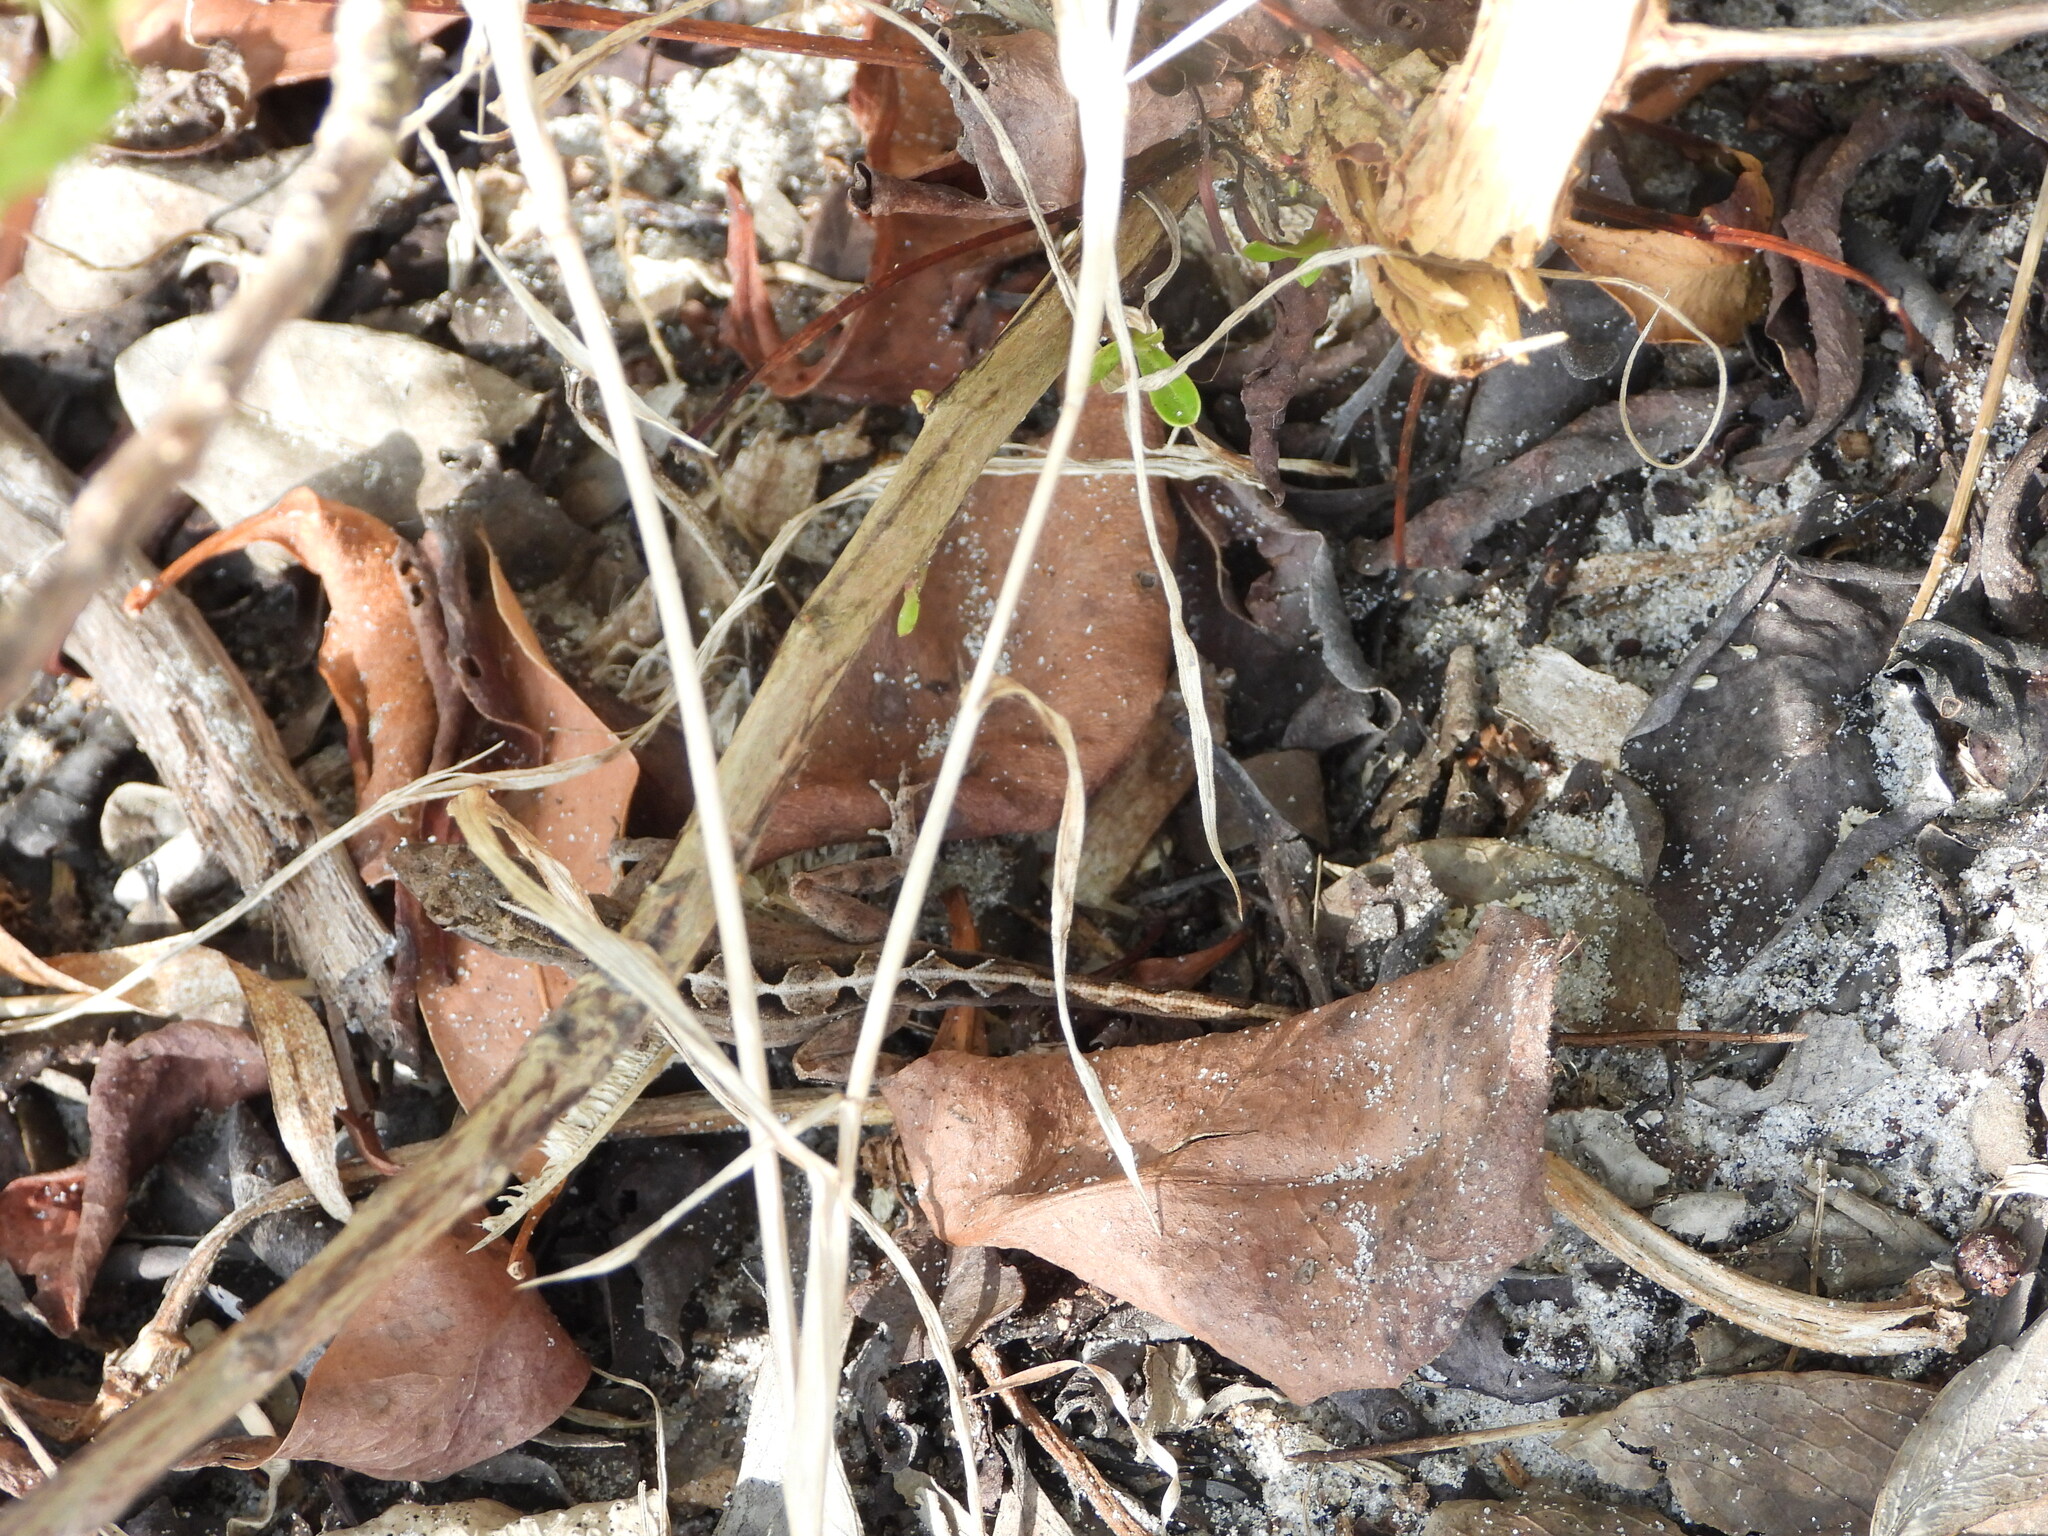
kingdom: Animalia
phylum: Chordata
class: Squamata
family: Dactyloidae
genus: Anolis
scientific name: Anolis sagrei
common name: Brown anole
